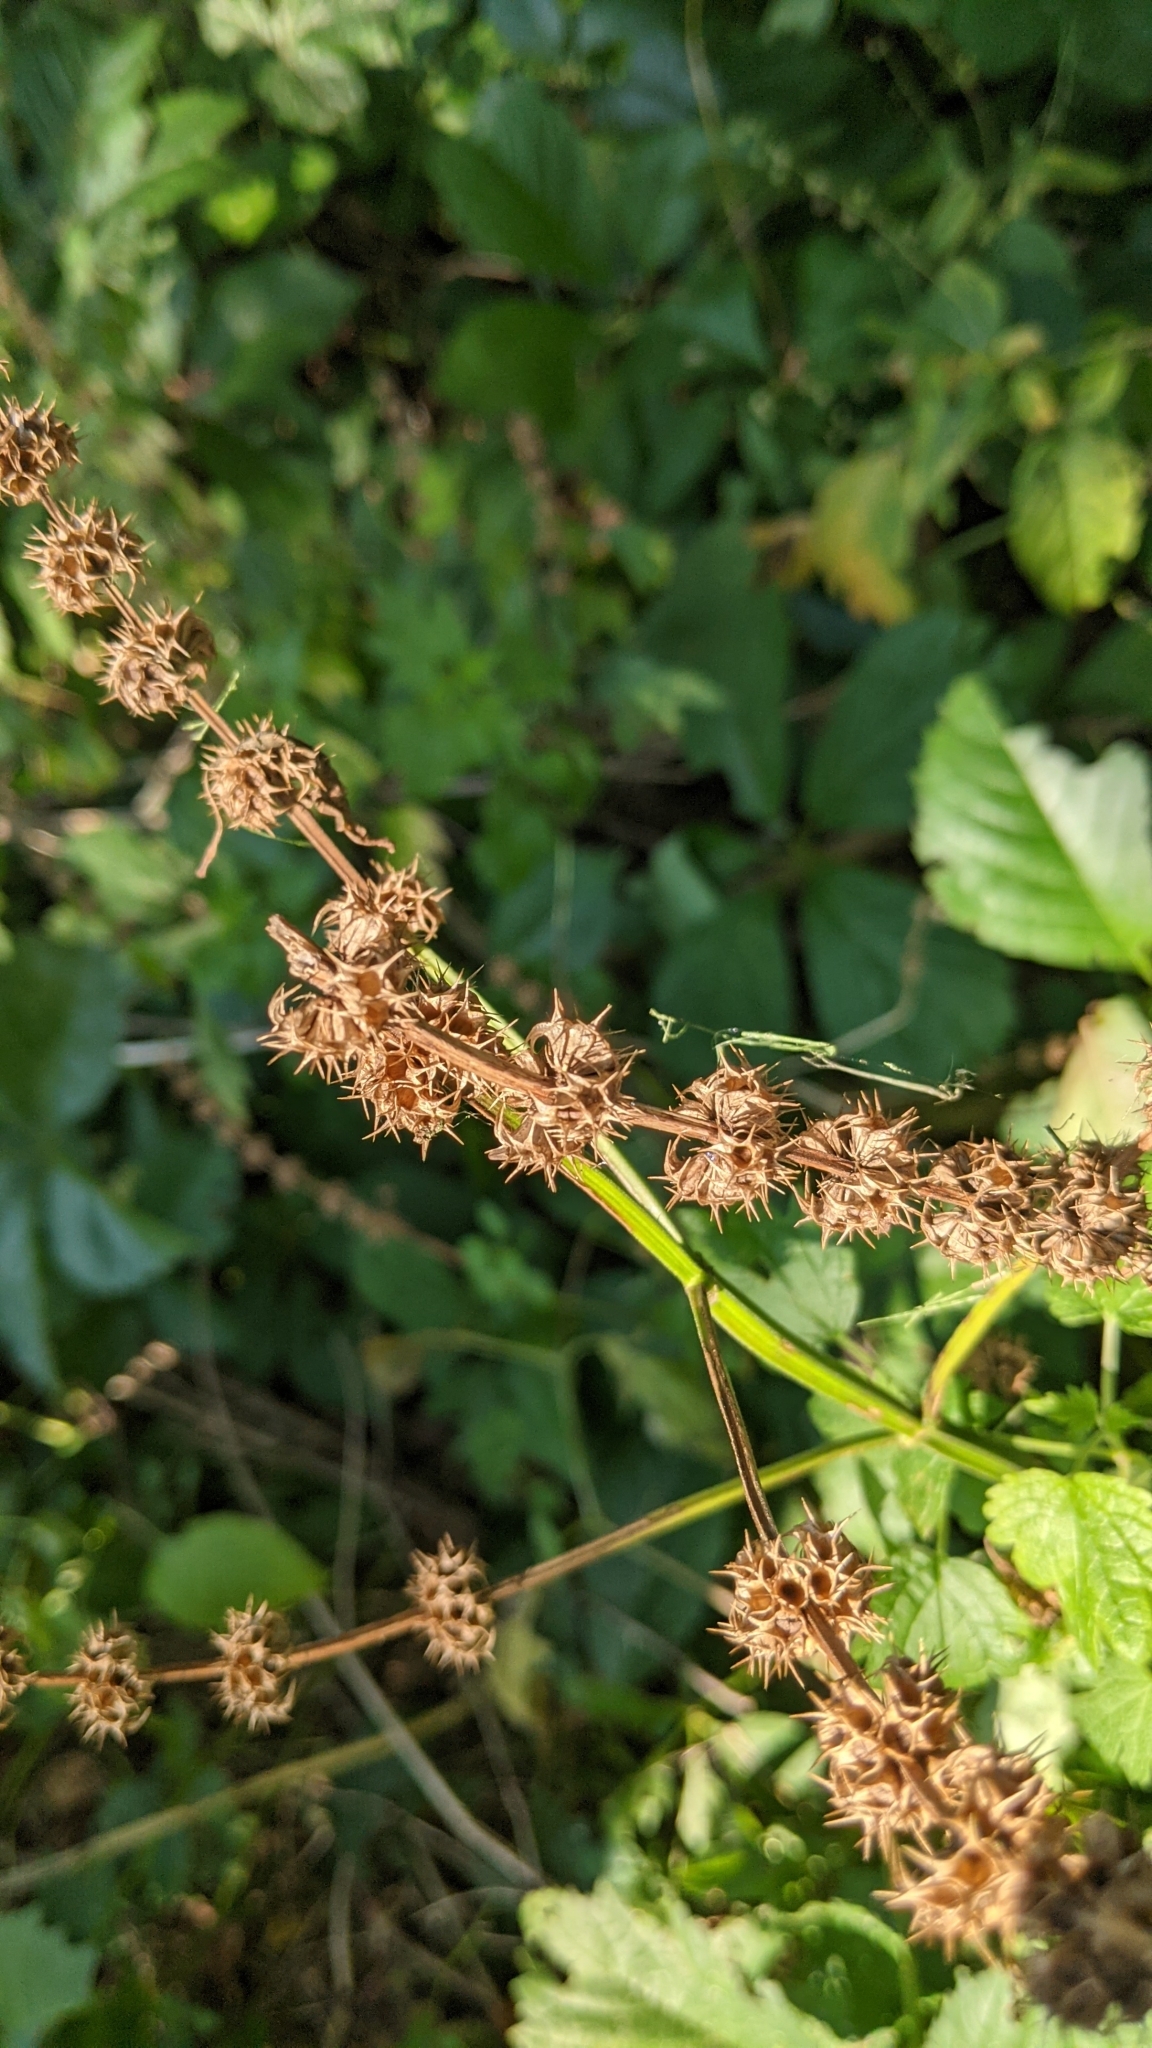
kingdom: Plantae
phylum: Tracheophyta
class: Magnoliopsida
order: Lamiales
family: Lamiaceae
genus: Leonurus
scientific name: Leonurus cardiaca
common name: Motherwort
